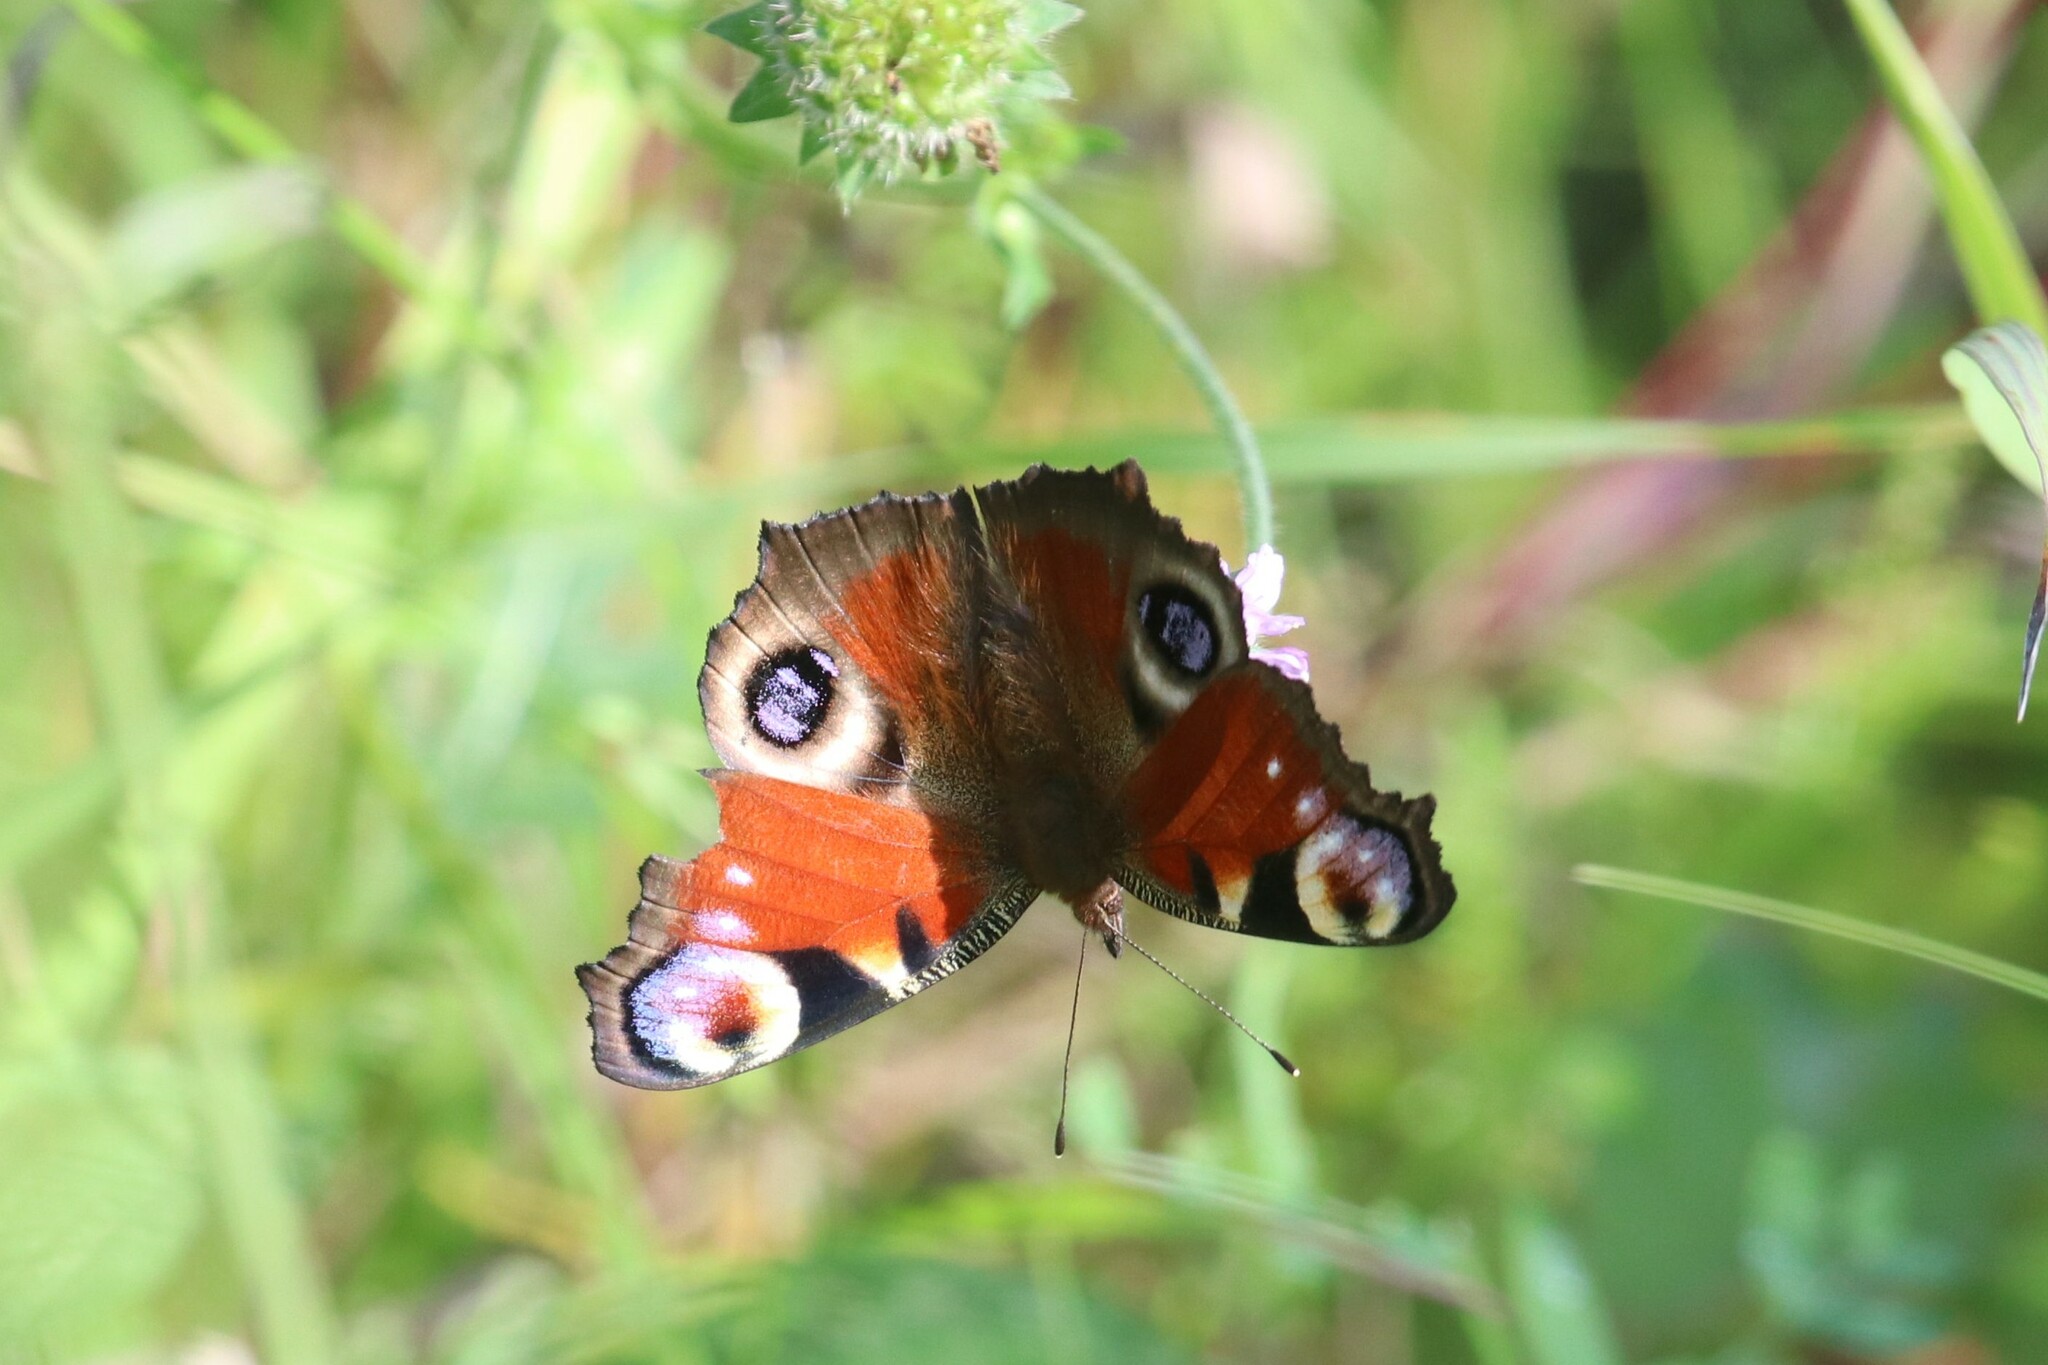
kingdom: Animalia
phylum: Arthropoda
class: Insecta
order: Lepidoptera
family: Nymphalidae
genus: Aglais
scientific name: Aglais io
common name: Peacock
